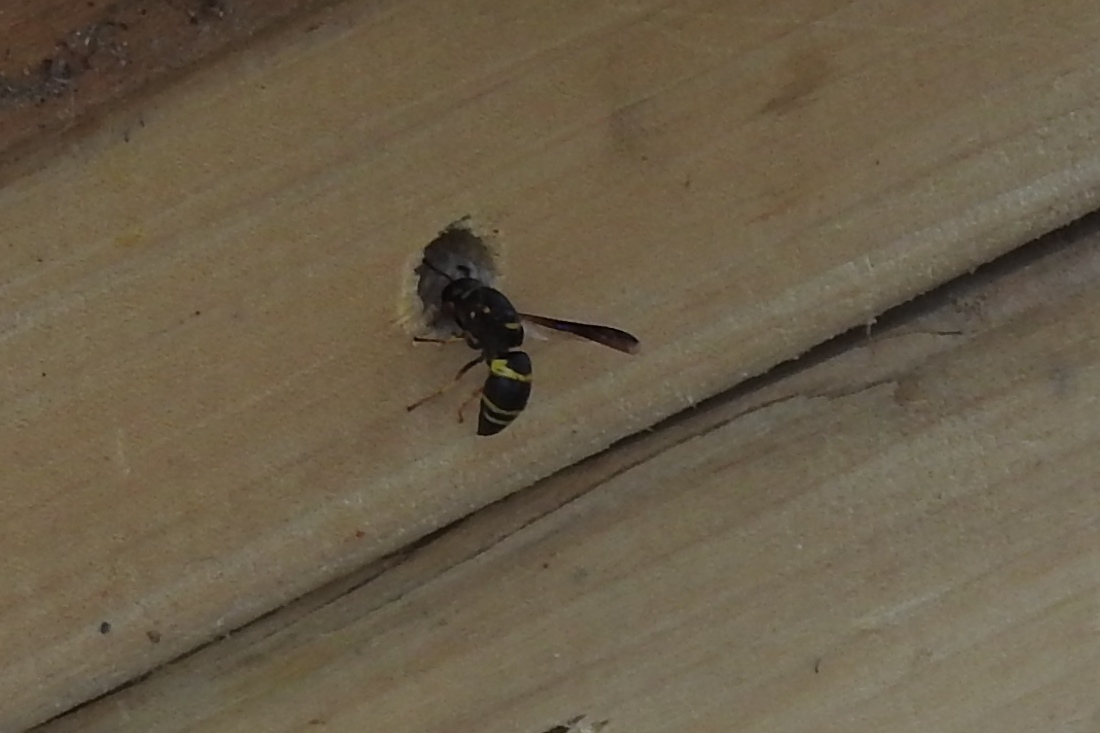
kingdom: Animalia
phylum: Arthropoda
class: Insecta
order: Hymenoptera
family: Eumenidae
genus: Euodynerus
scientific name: Euodynerus hidalgo
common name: Wasp
